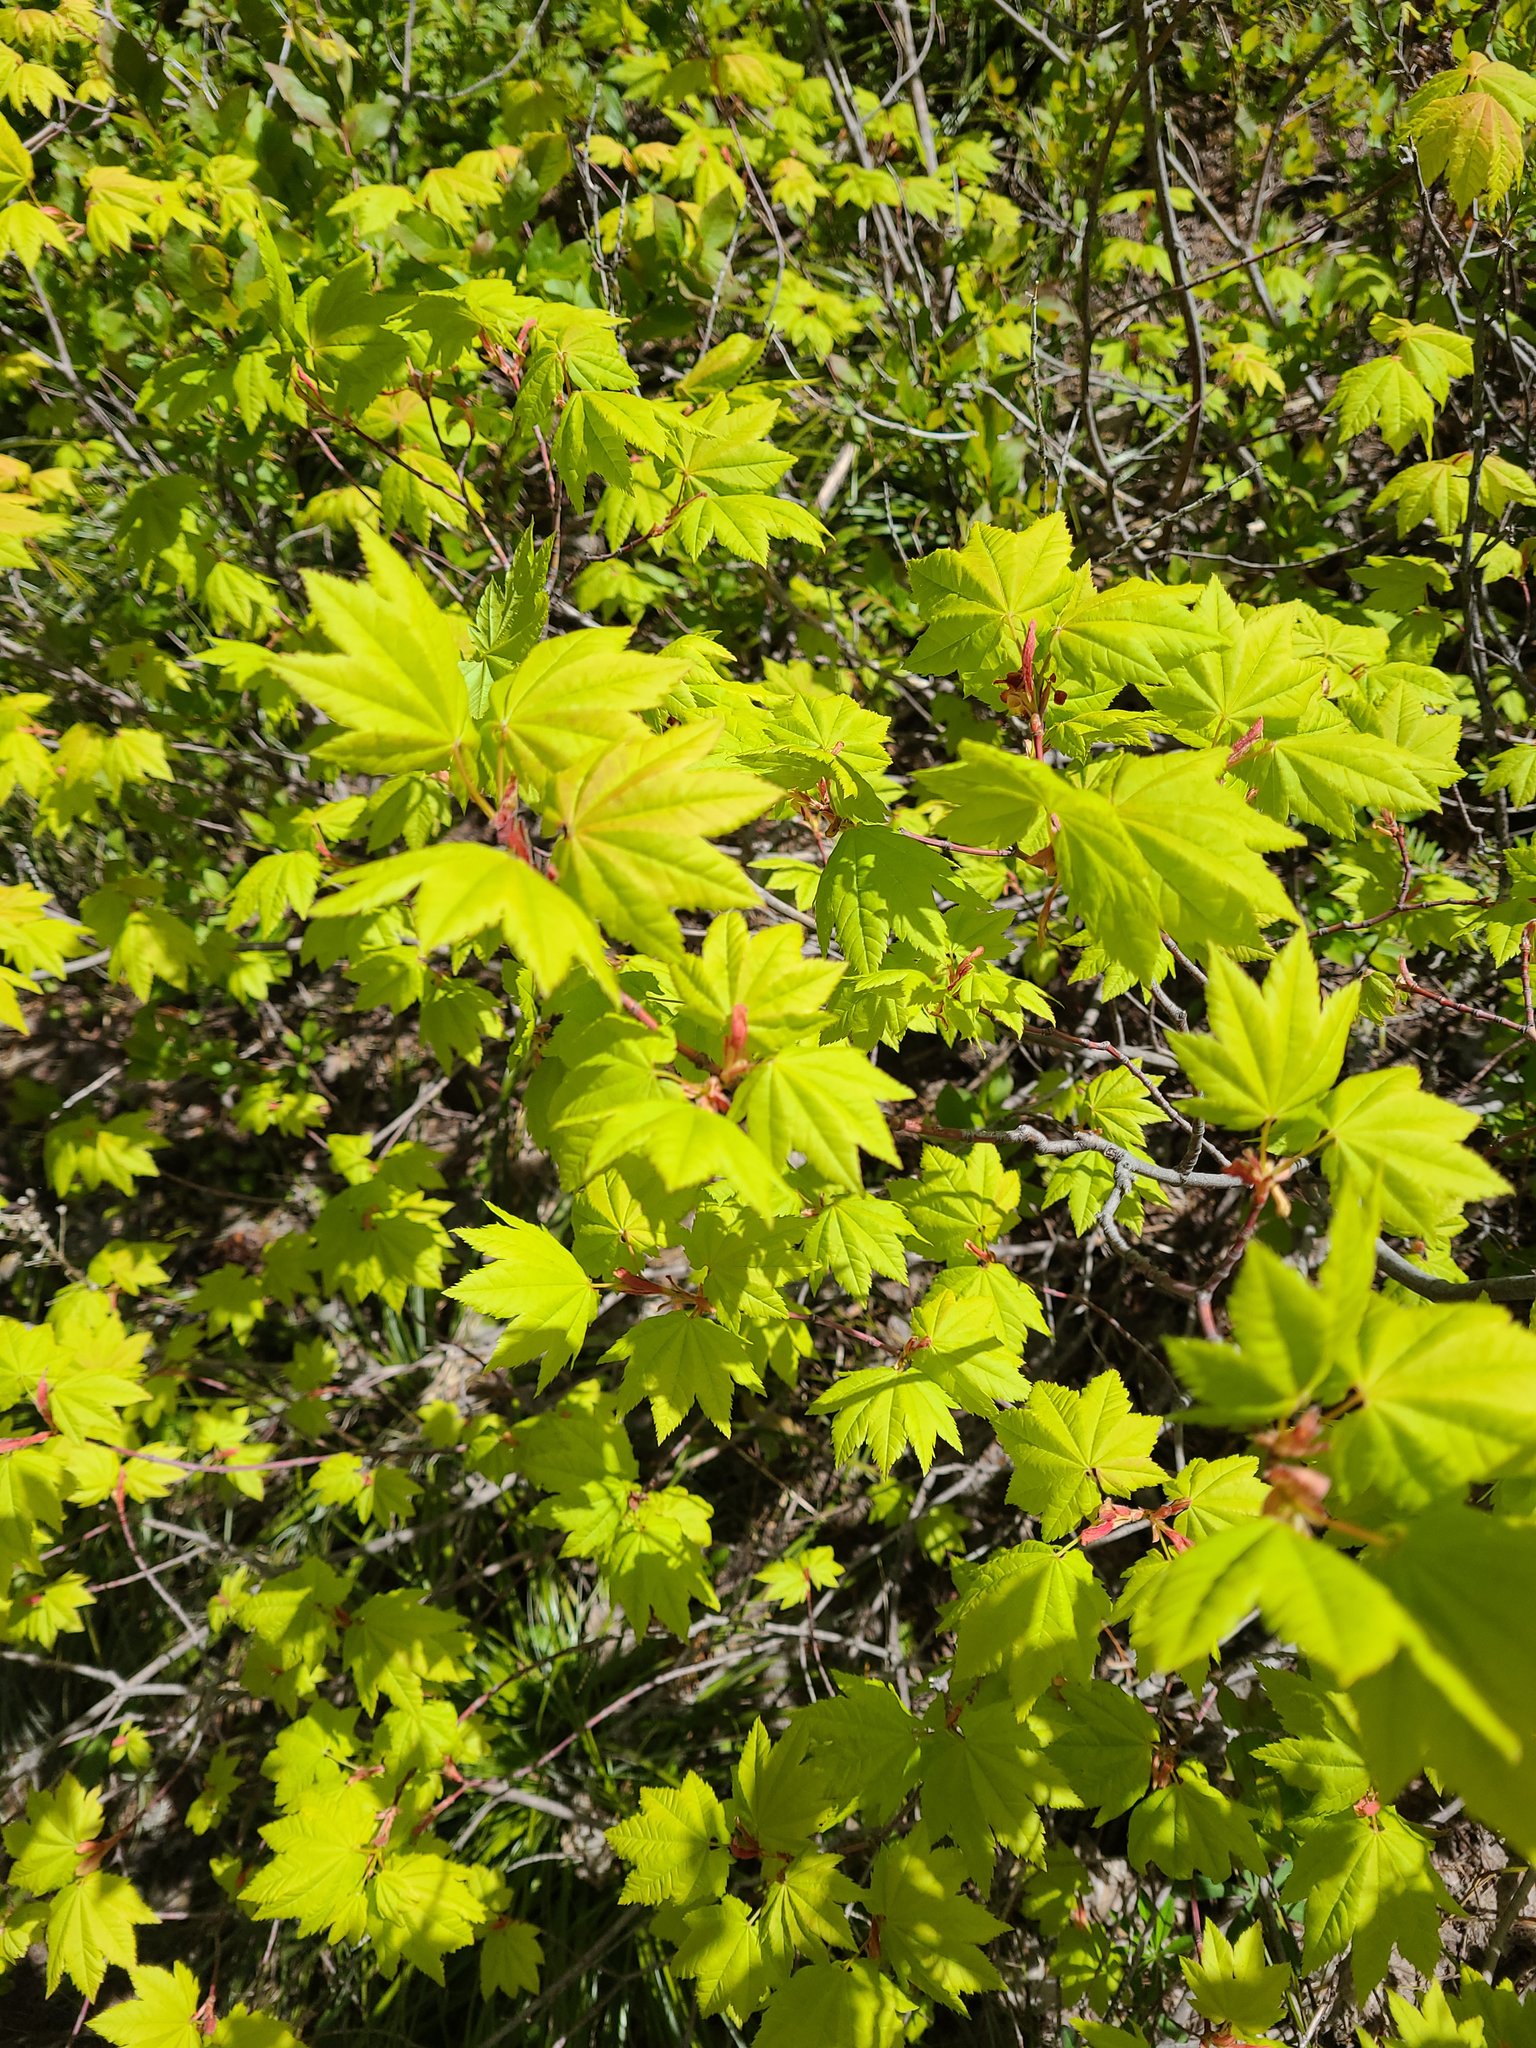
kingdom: Plantae
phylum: Tracheophyta
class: Magnoliopsida
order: Sapindales
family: Sapindaceae
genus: Acer
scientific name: Acer circinatum
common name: Vine maple
